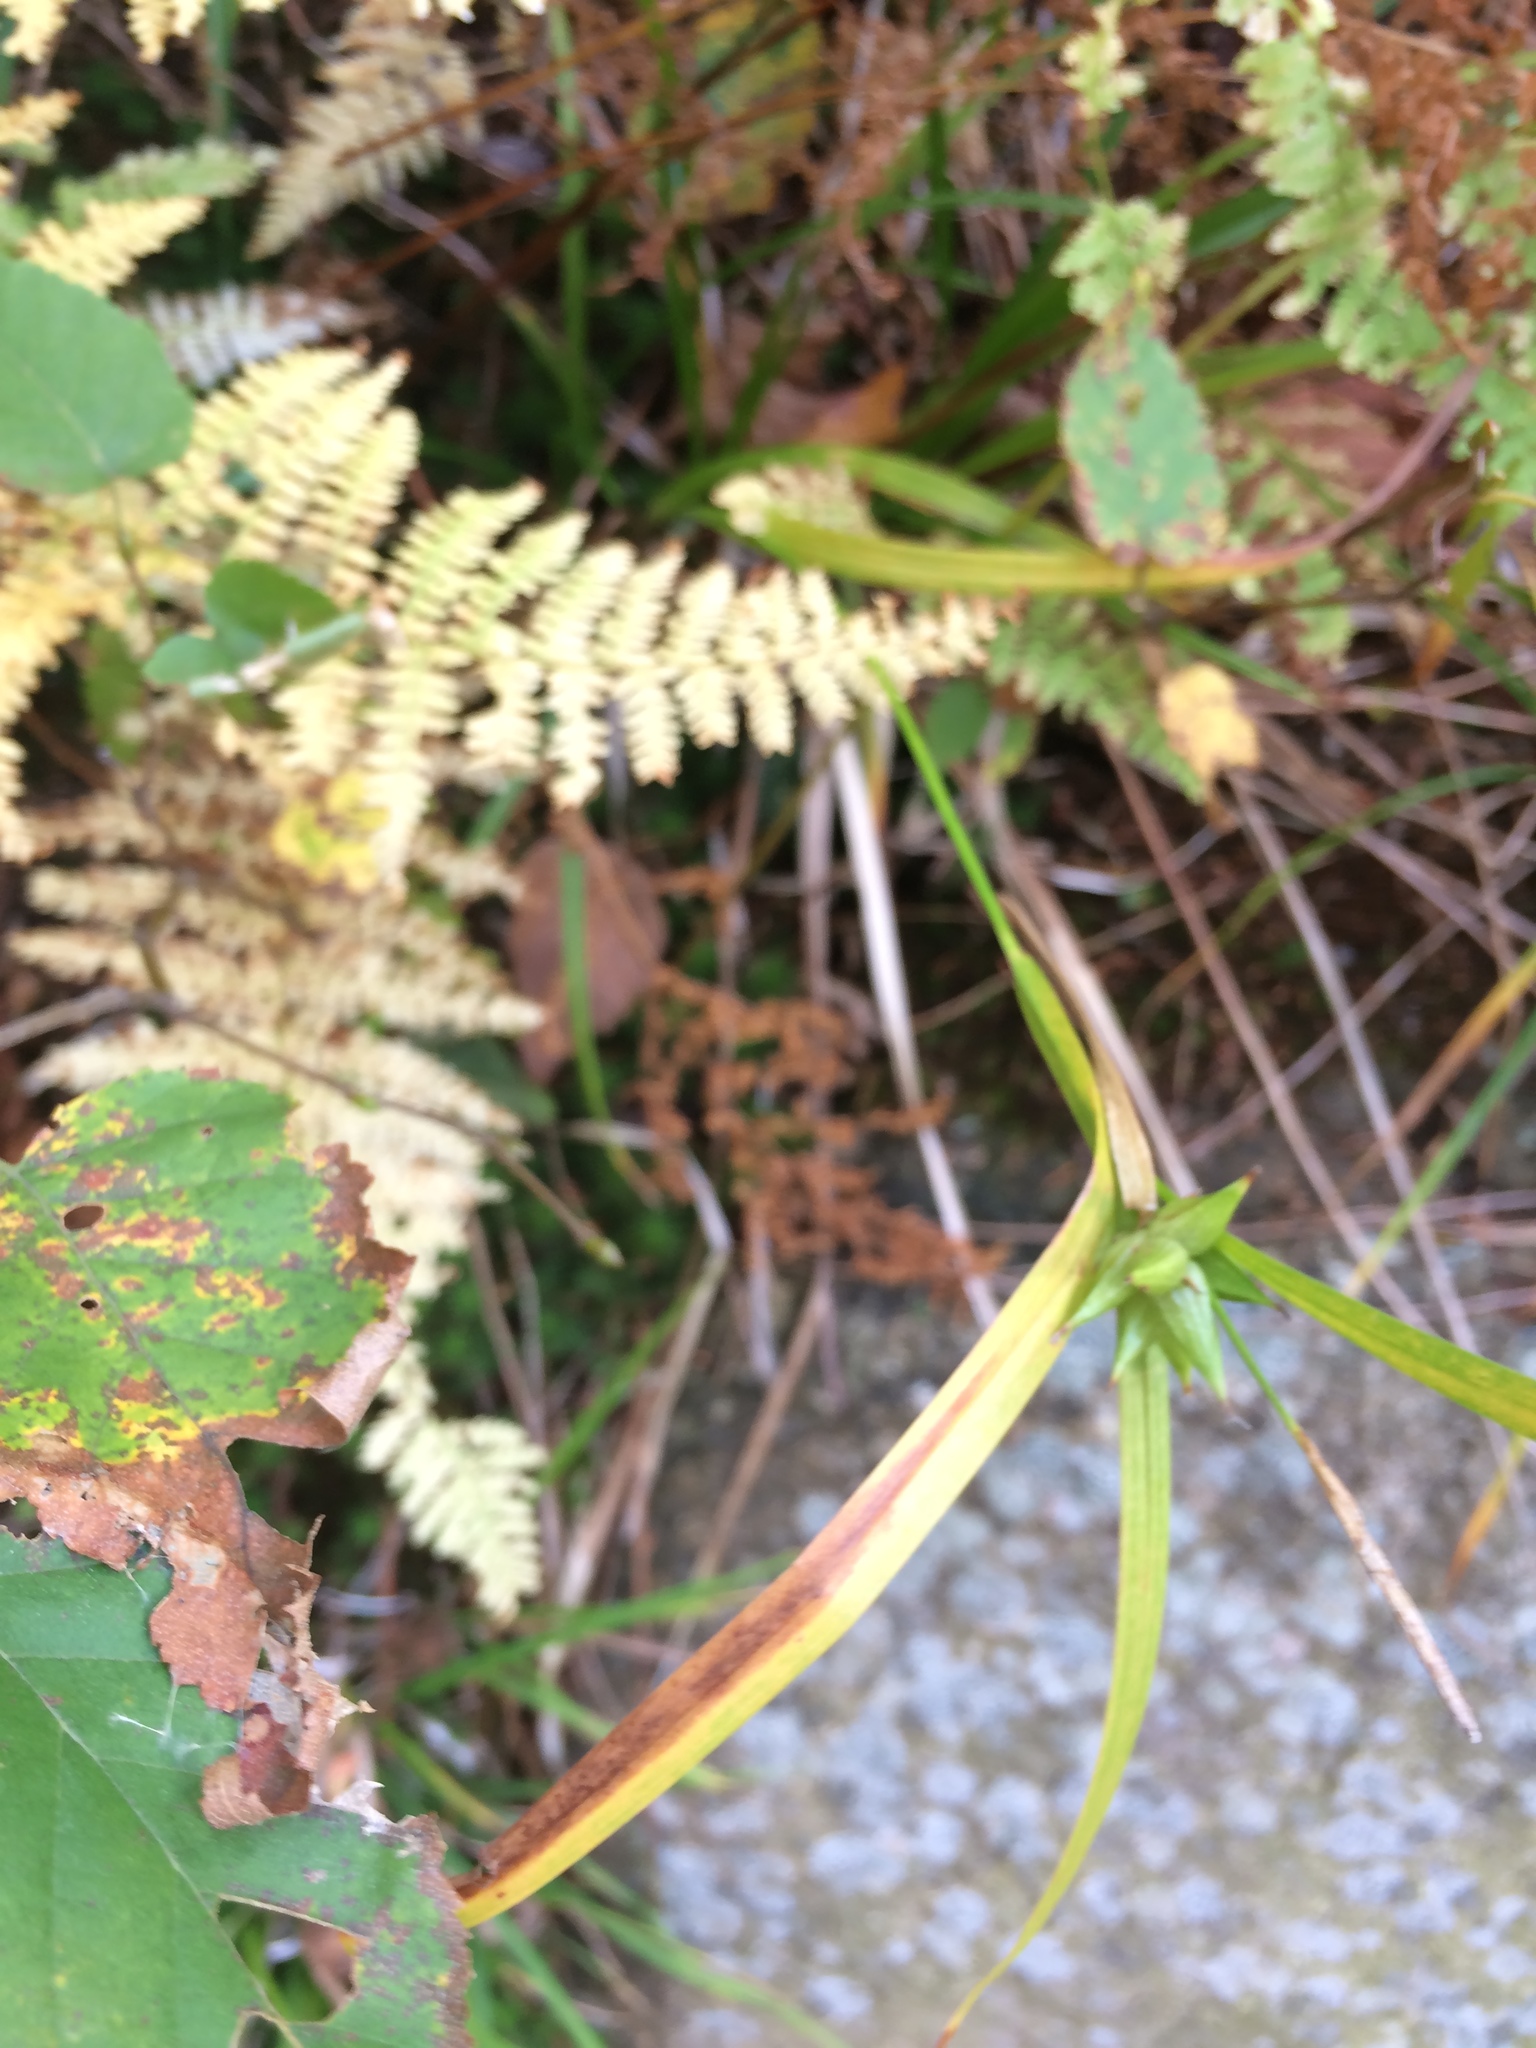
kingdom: Plantae
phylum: Tracheophyta
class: Liliopsida
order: Poales
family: Cyperaceae
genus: Carex
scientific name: Carex intumescens
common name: Greater bladder sedge
